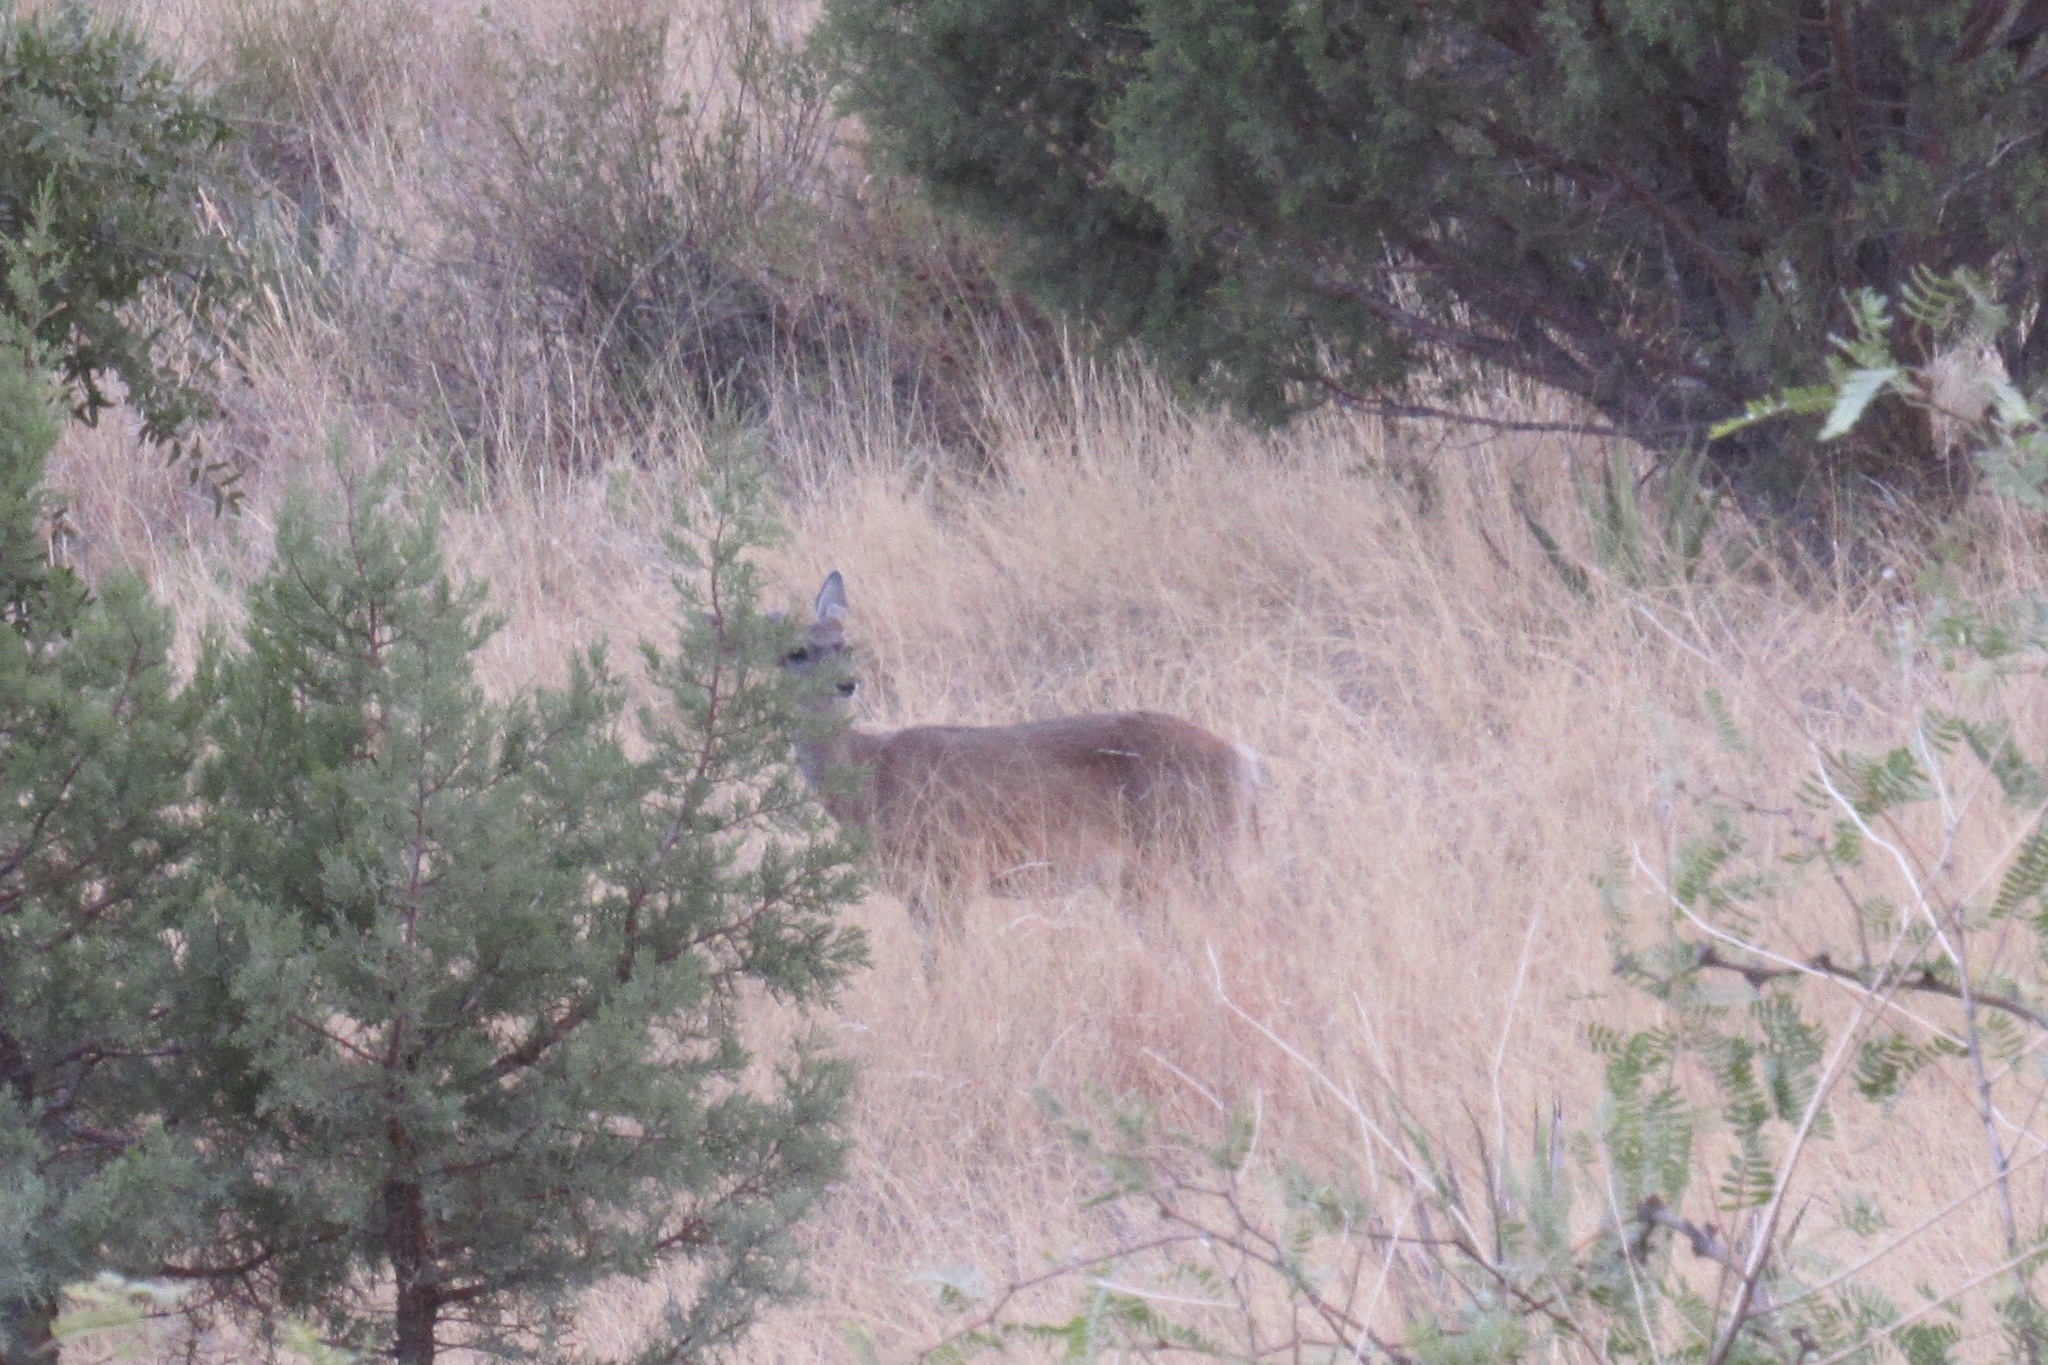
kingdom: Animalia
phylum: Chordata
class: Mammalia
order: Artiodactyla
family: Cervidae
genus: Odocoileus
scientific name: Odocoileus virginianus
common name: White-tailed deer
